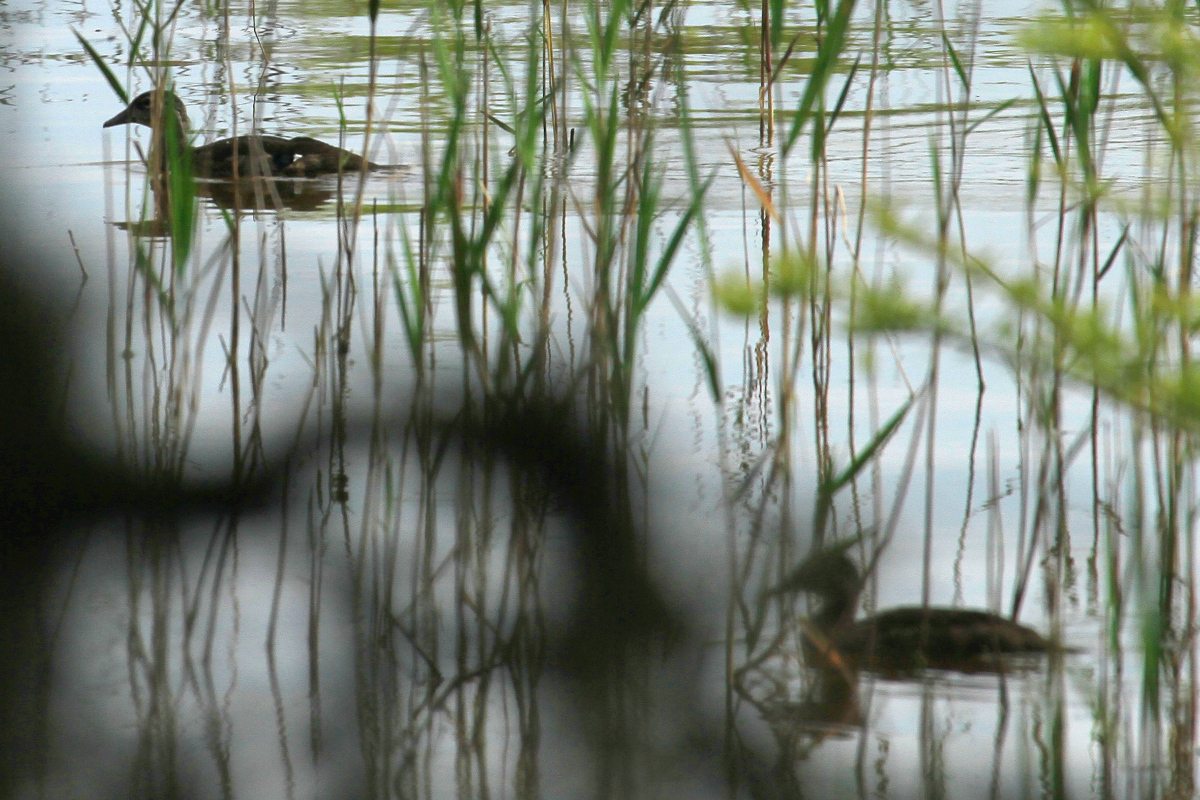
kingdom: Animalia
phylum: Chordata
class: Aves
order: Anseriformes
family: Anatidae
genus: Aix
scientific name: Aix sponsa
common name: Wood duck
